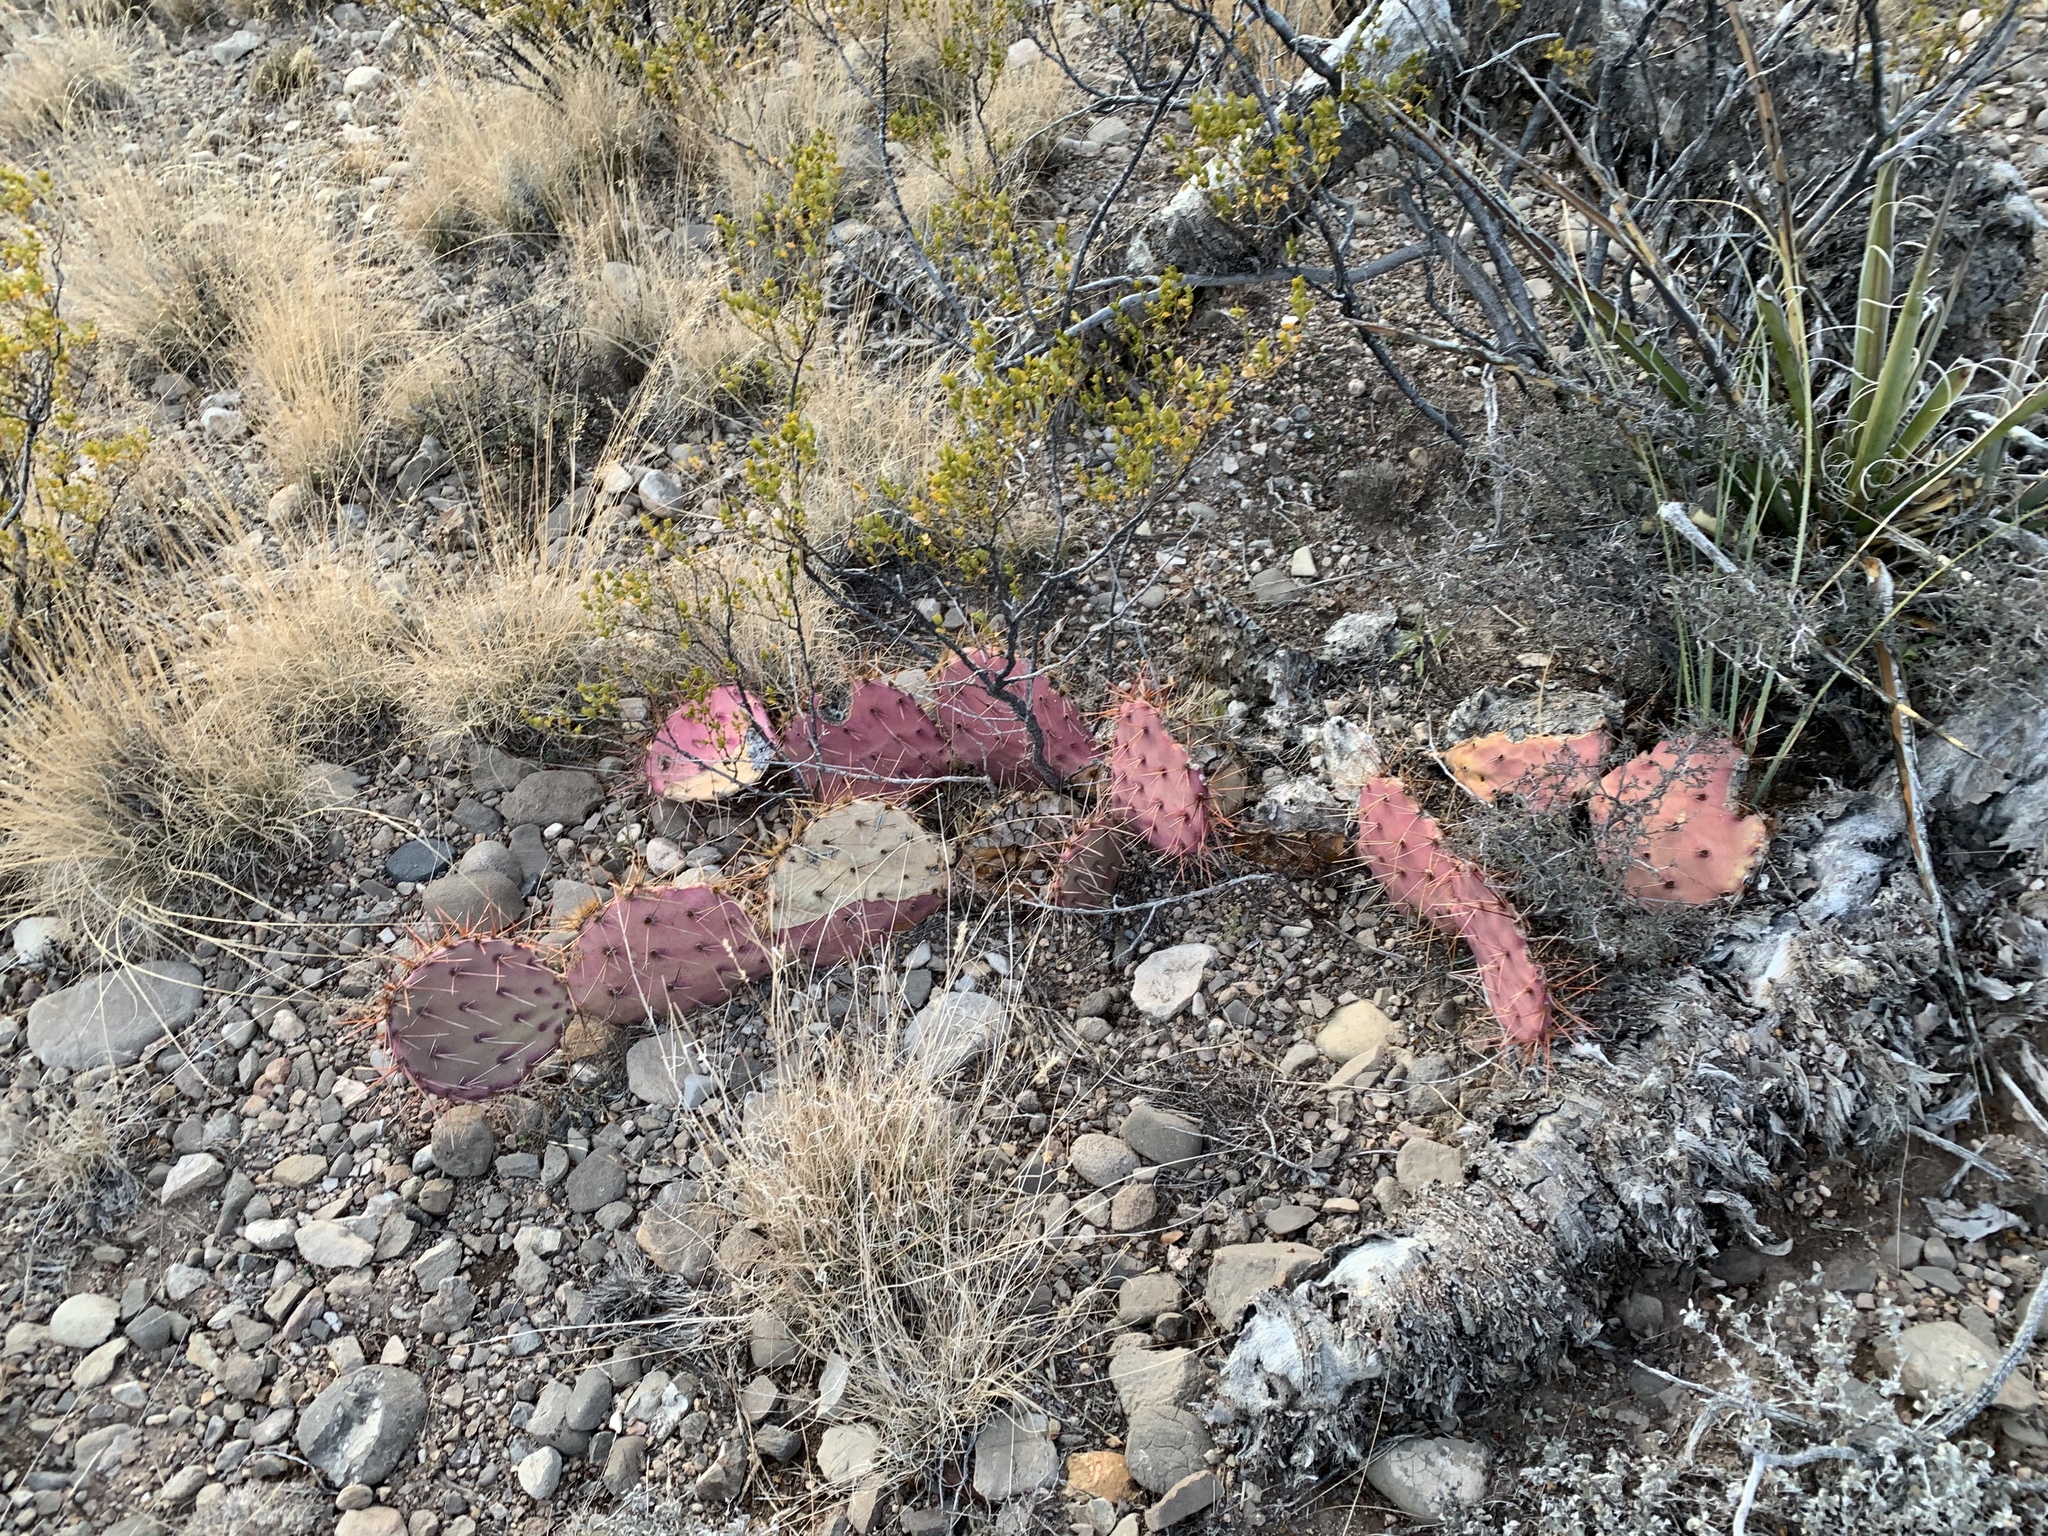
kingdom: Plantae
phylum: Tracheophyta
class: Magnoliopsida
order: Caryophyllales
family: Cactaceae
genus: Opuntia
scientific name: Opuntia macrocentra
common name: Purple prickly-pear
